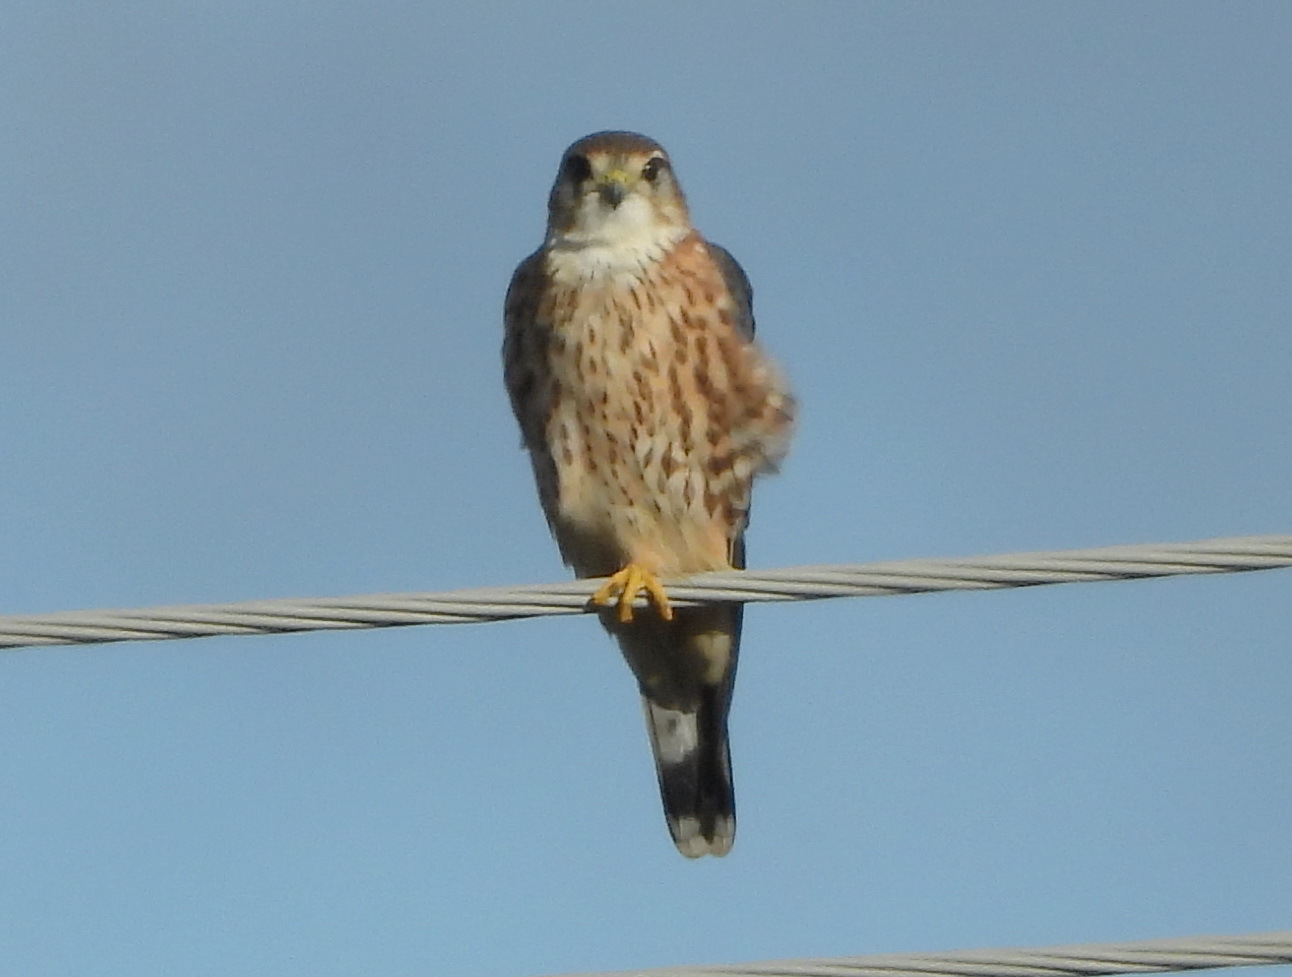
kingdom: Animalia
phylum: Chordata
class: Aves
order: Falconiformes
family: Falconidae
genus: Falco
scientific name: Falco columbarius
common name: Merlin
